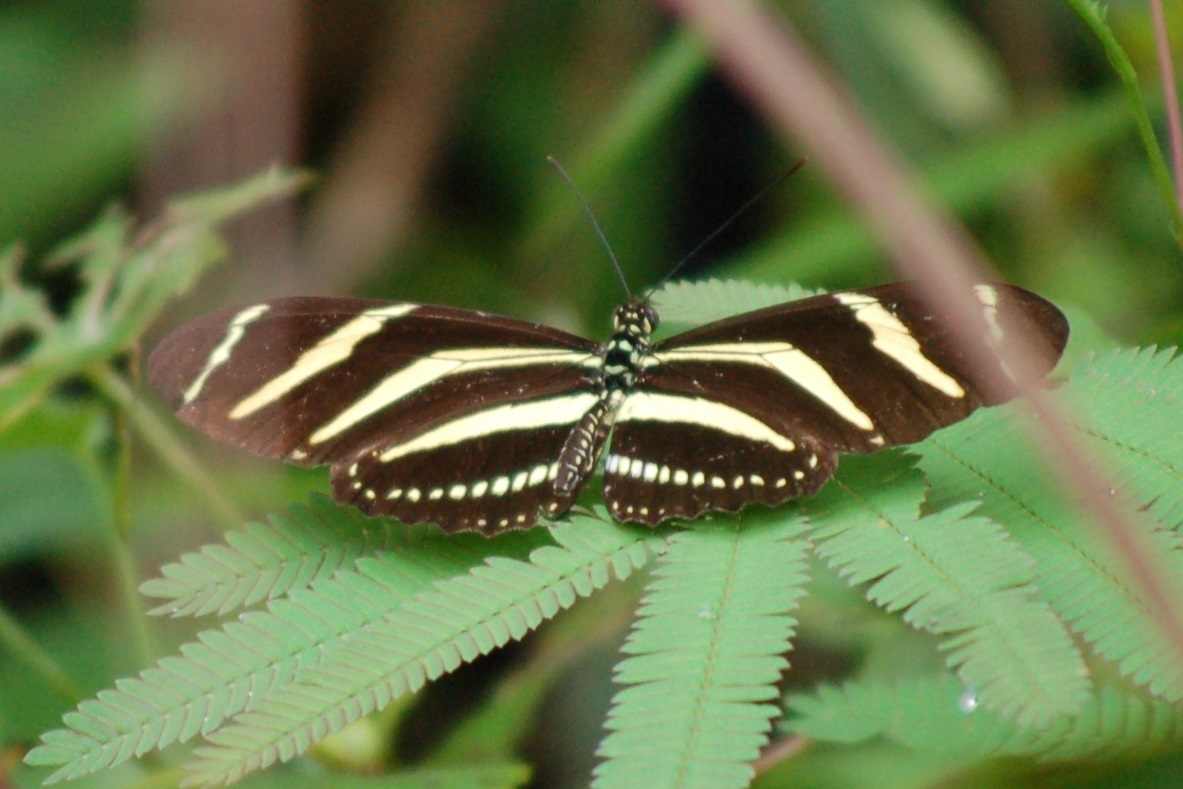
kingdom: Animalia
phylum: Arthropoda
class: Insecta
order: Lepidoptera
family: Nymphalidae
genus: Heliconius
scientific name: Heliconius charithonia
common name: Zebra long wing
